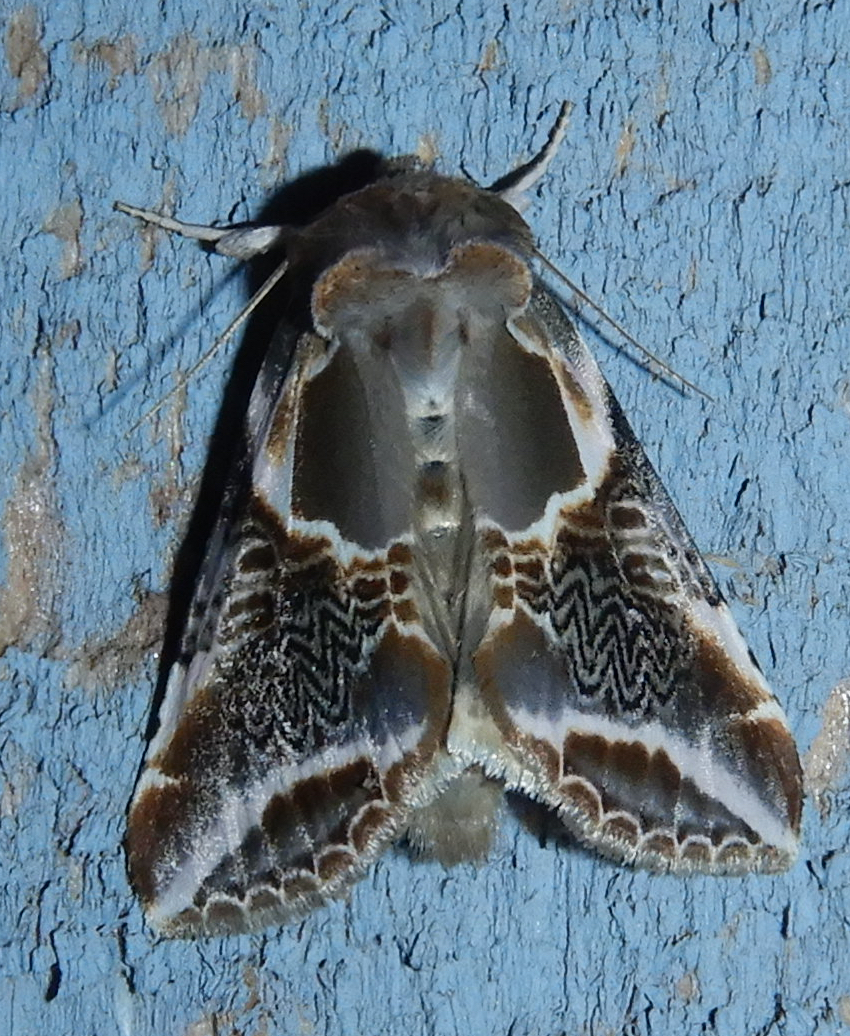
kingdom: Animalia
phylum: Arthropoda
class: Insecta
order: Lepidoptera
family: Drepanidae
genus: Habrosyne
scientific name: Habrosyne scripta
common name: Lettered habrosyne moth
